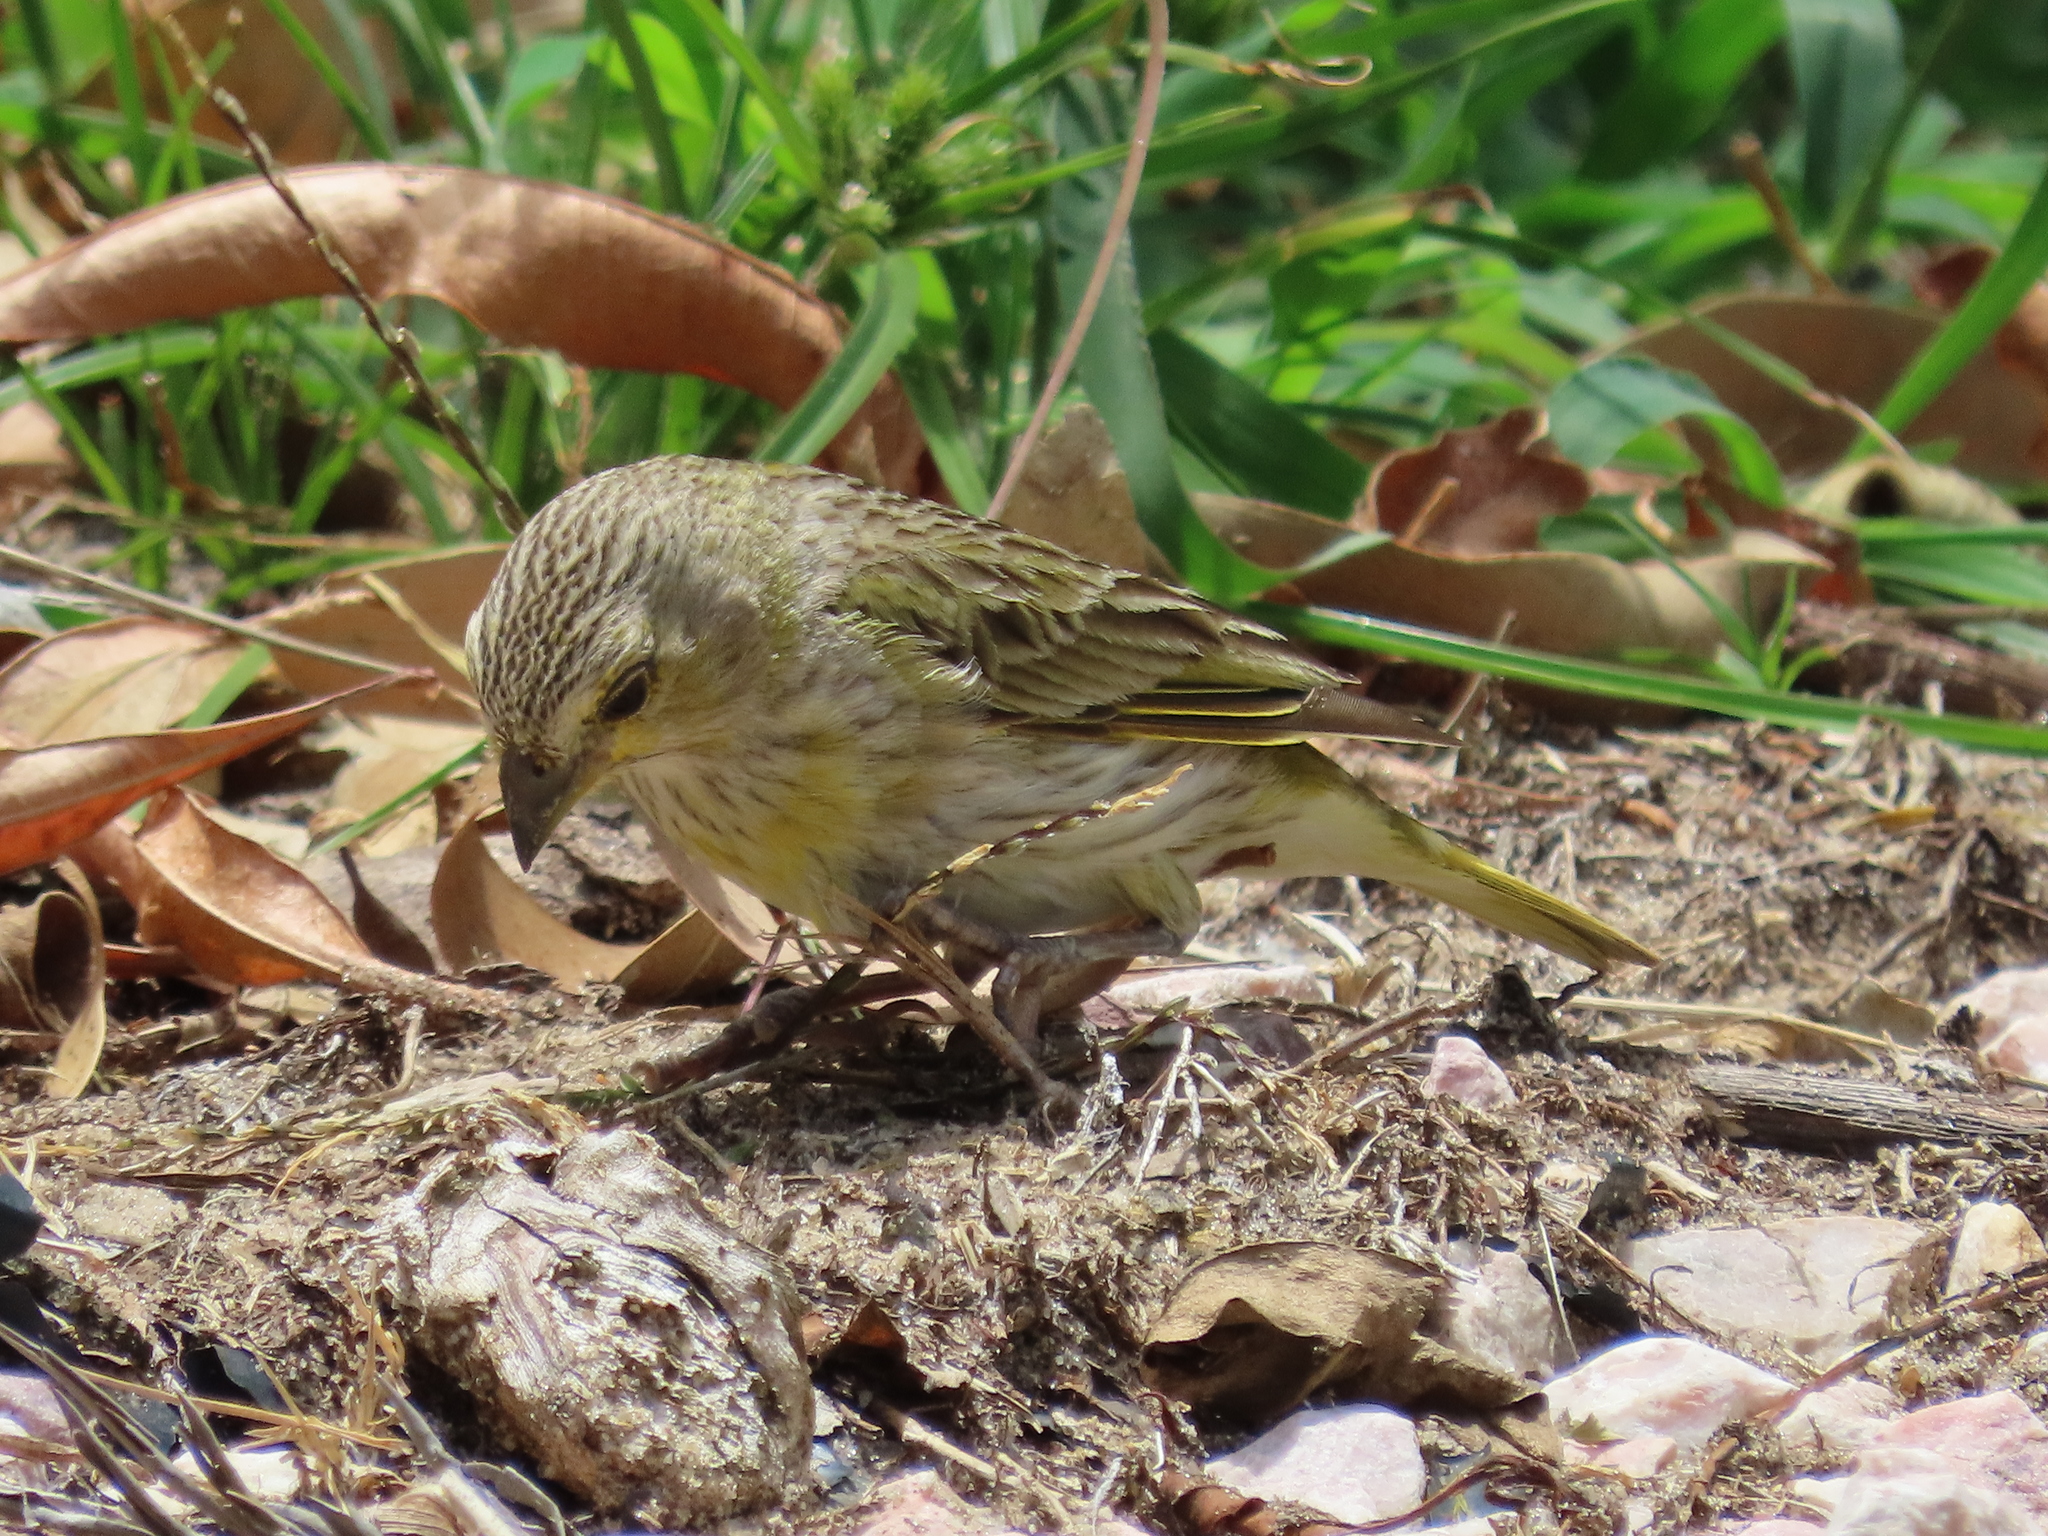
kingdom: Animalia
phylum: Chordata
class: Aves
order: Passeriformes
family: Thraupidae
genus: Sicalis
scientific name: Sicalis flaveola
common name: Saffron finch
